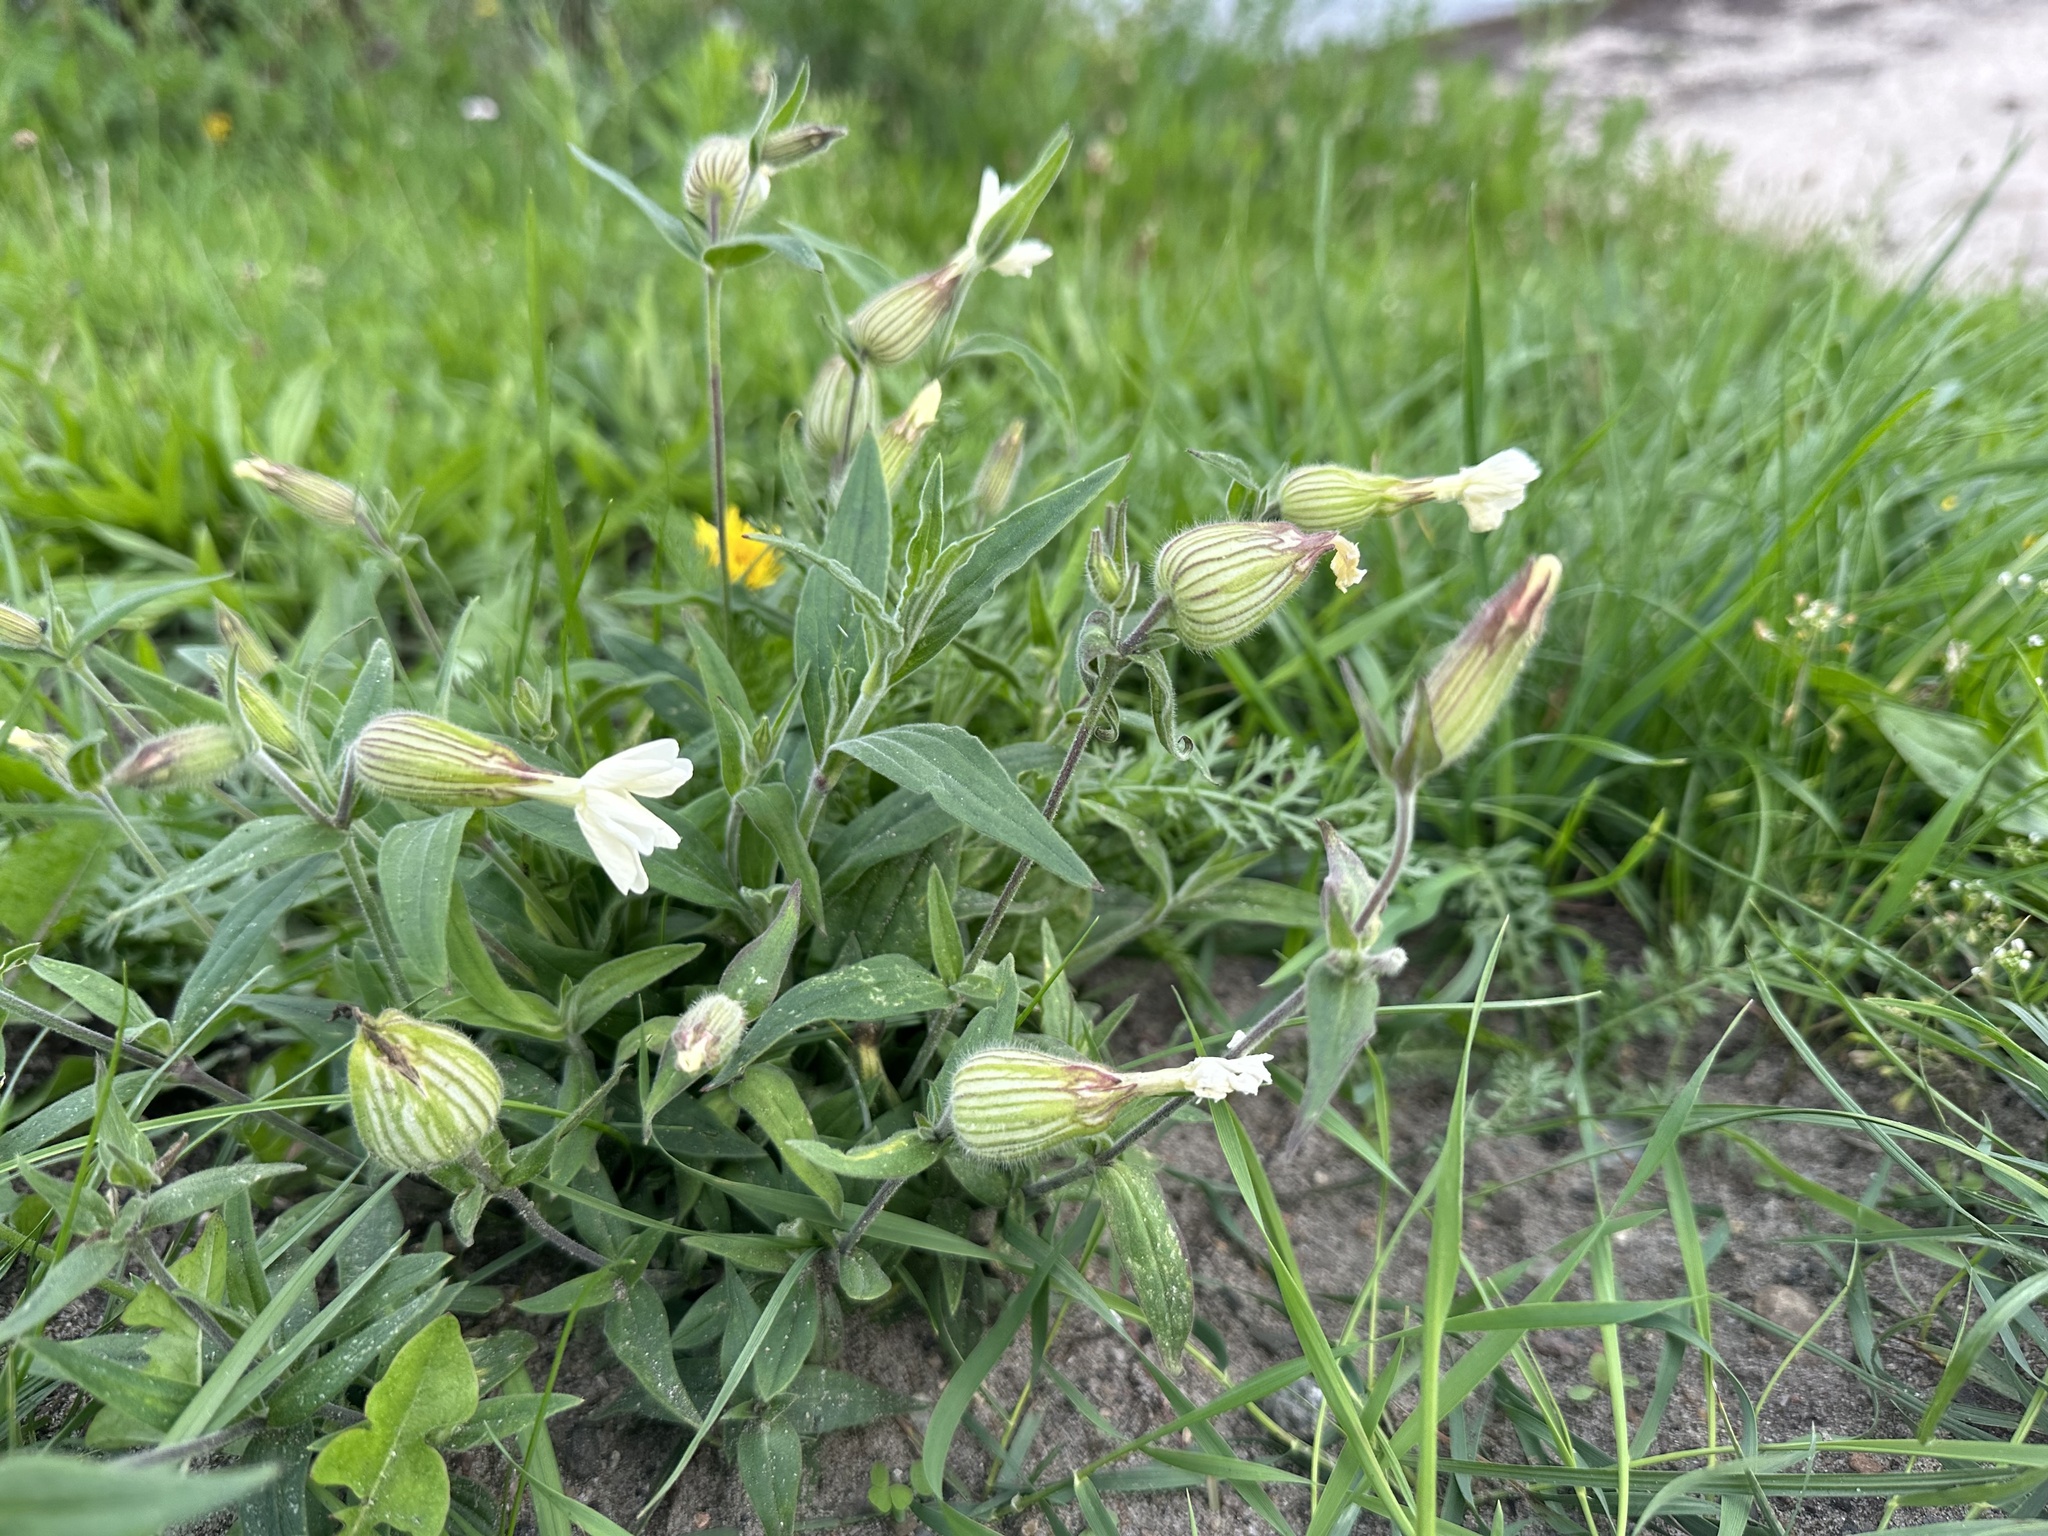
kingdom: Plantae
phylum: Tracheophyta
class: Magnoliopsida
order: Caryophyllales
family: Caryophyllaceae
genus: Silene
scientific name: Silene latifolia
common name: White campion
